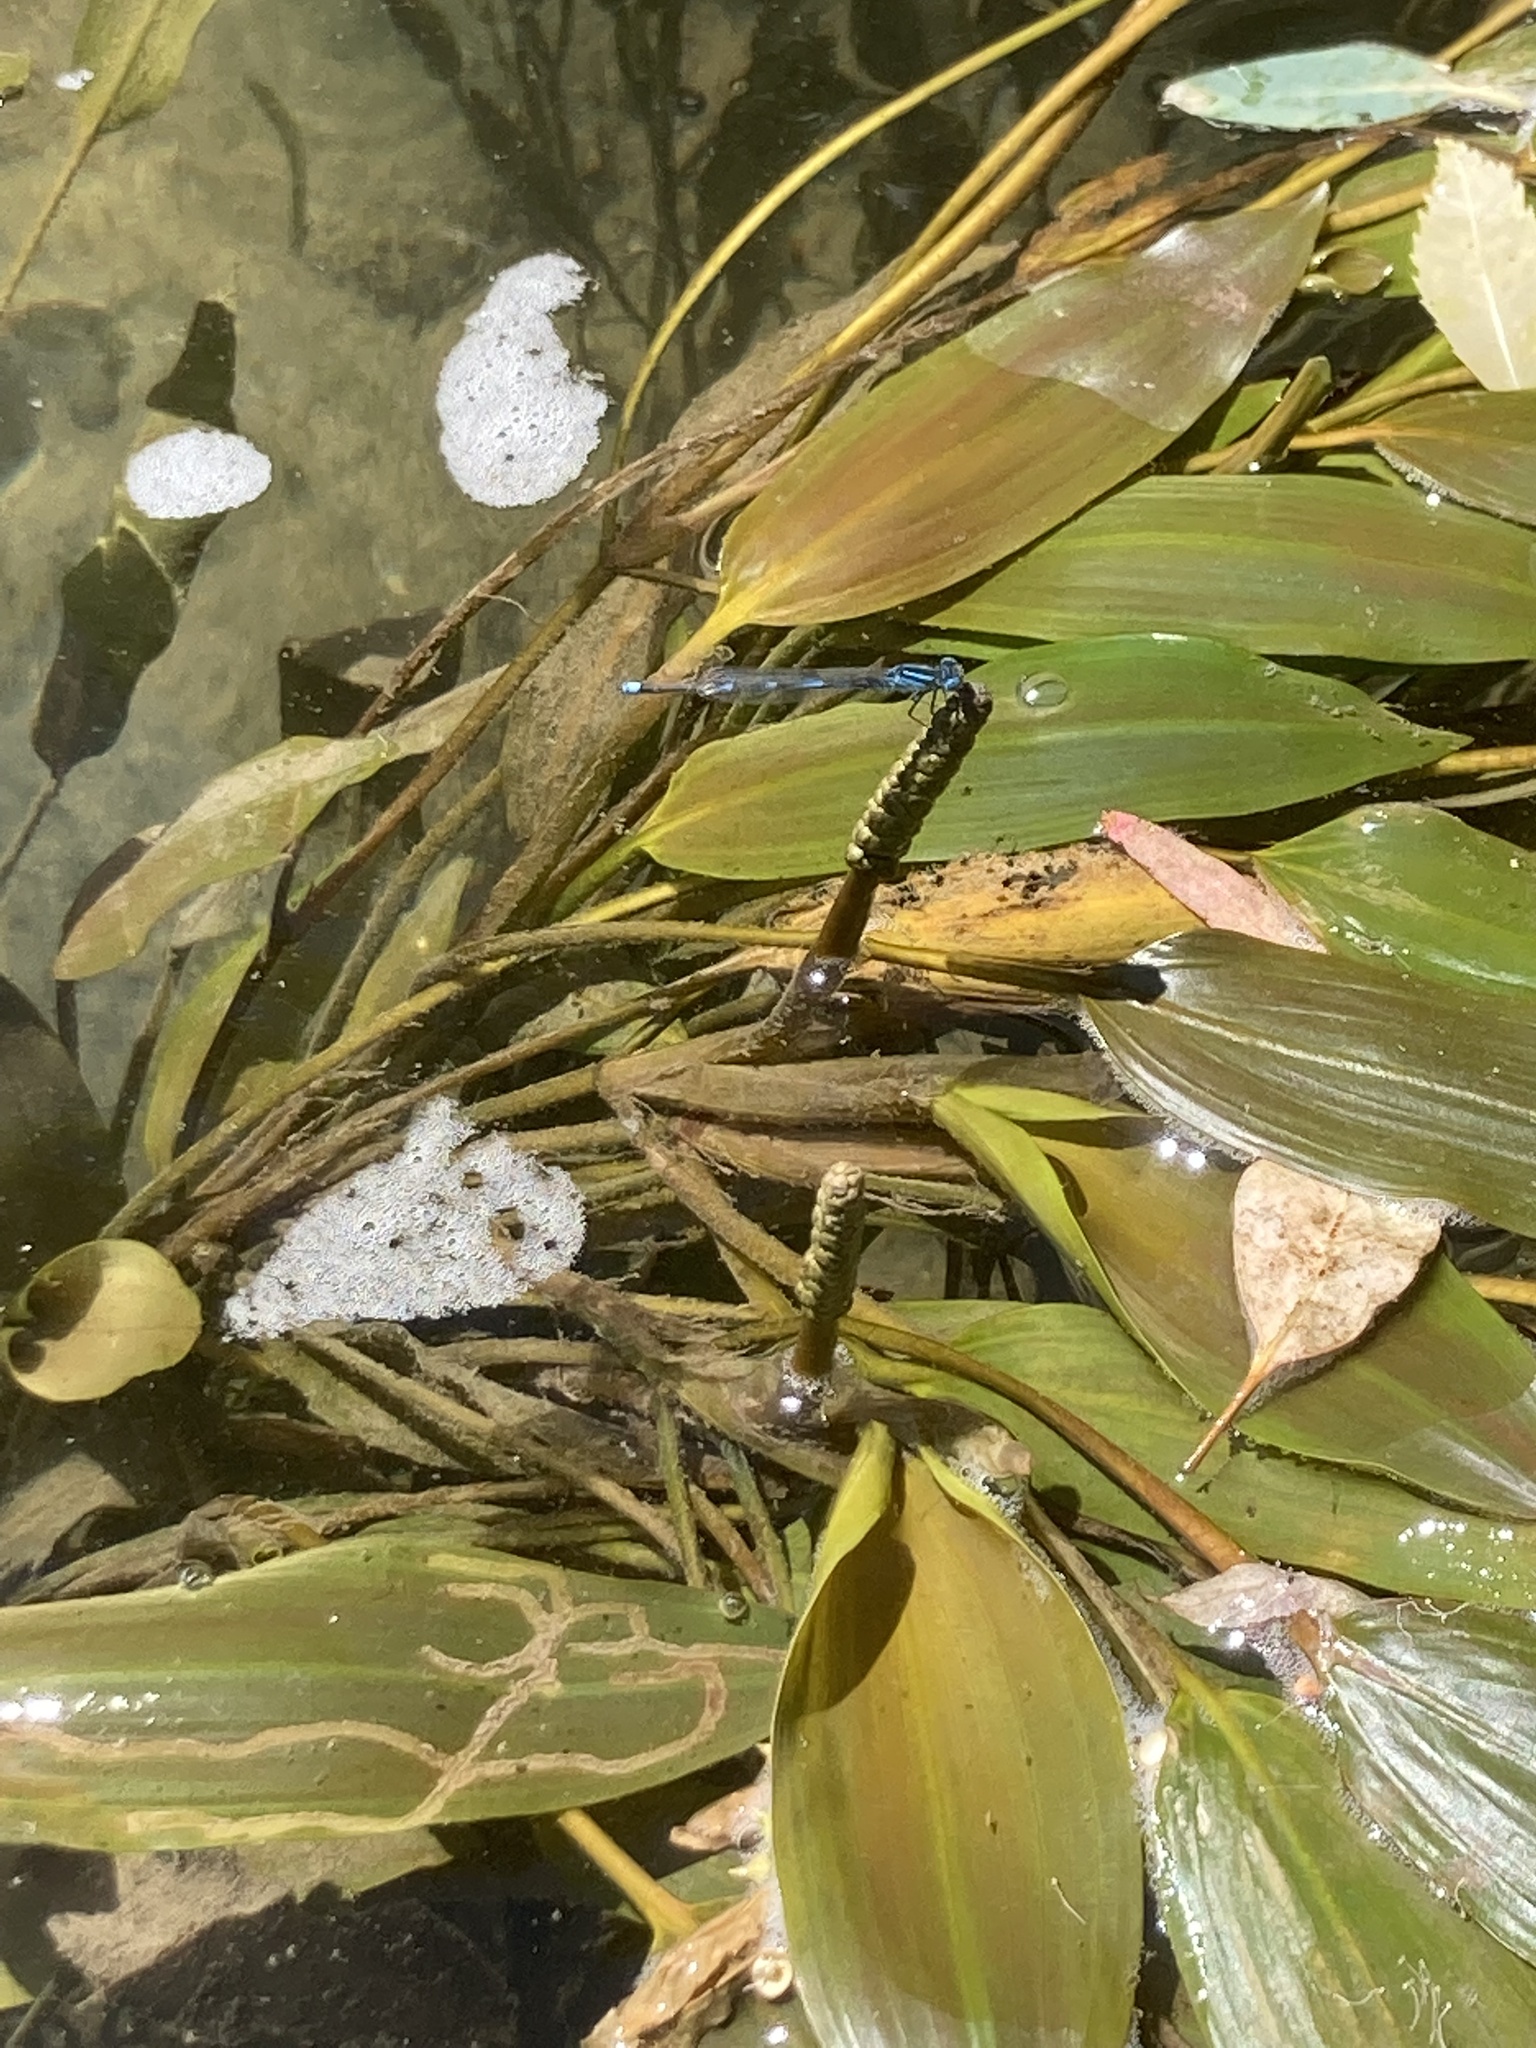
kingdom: Plantae
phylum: Tracheophyta
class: Liliopsida
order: Alismatales
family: Potamogetonaceae
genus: Potamogeton
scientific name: Potamogeton nodosus
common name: Loddon pondweed
